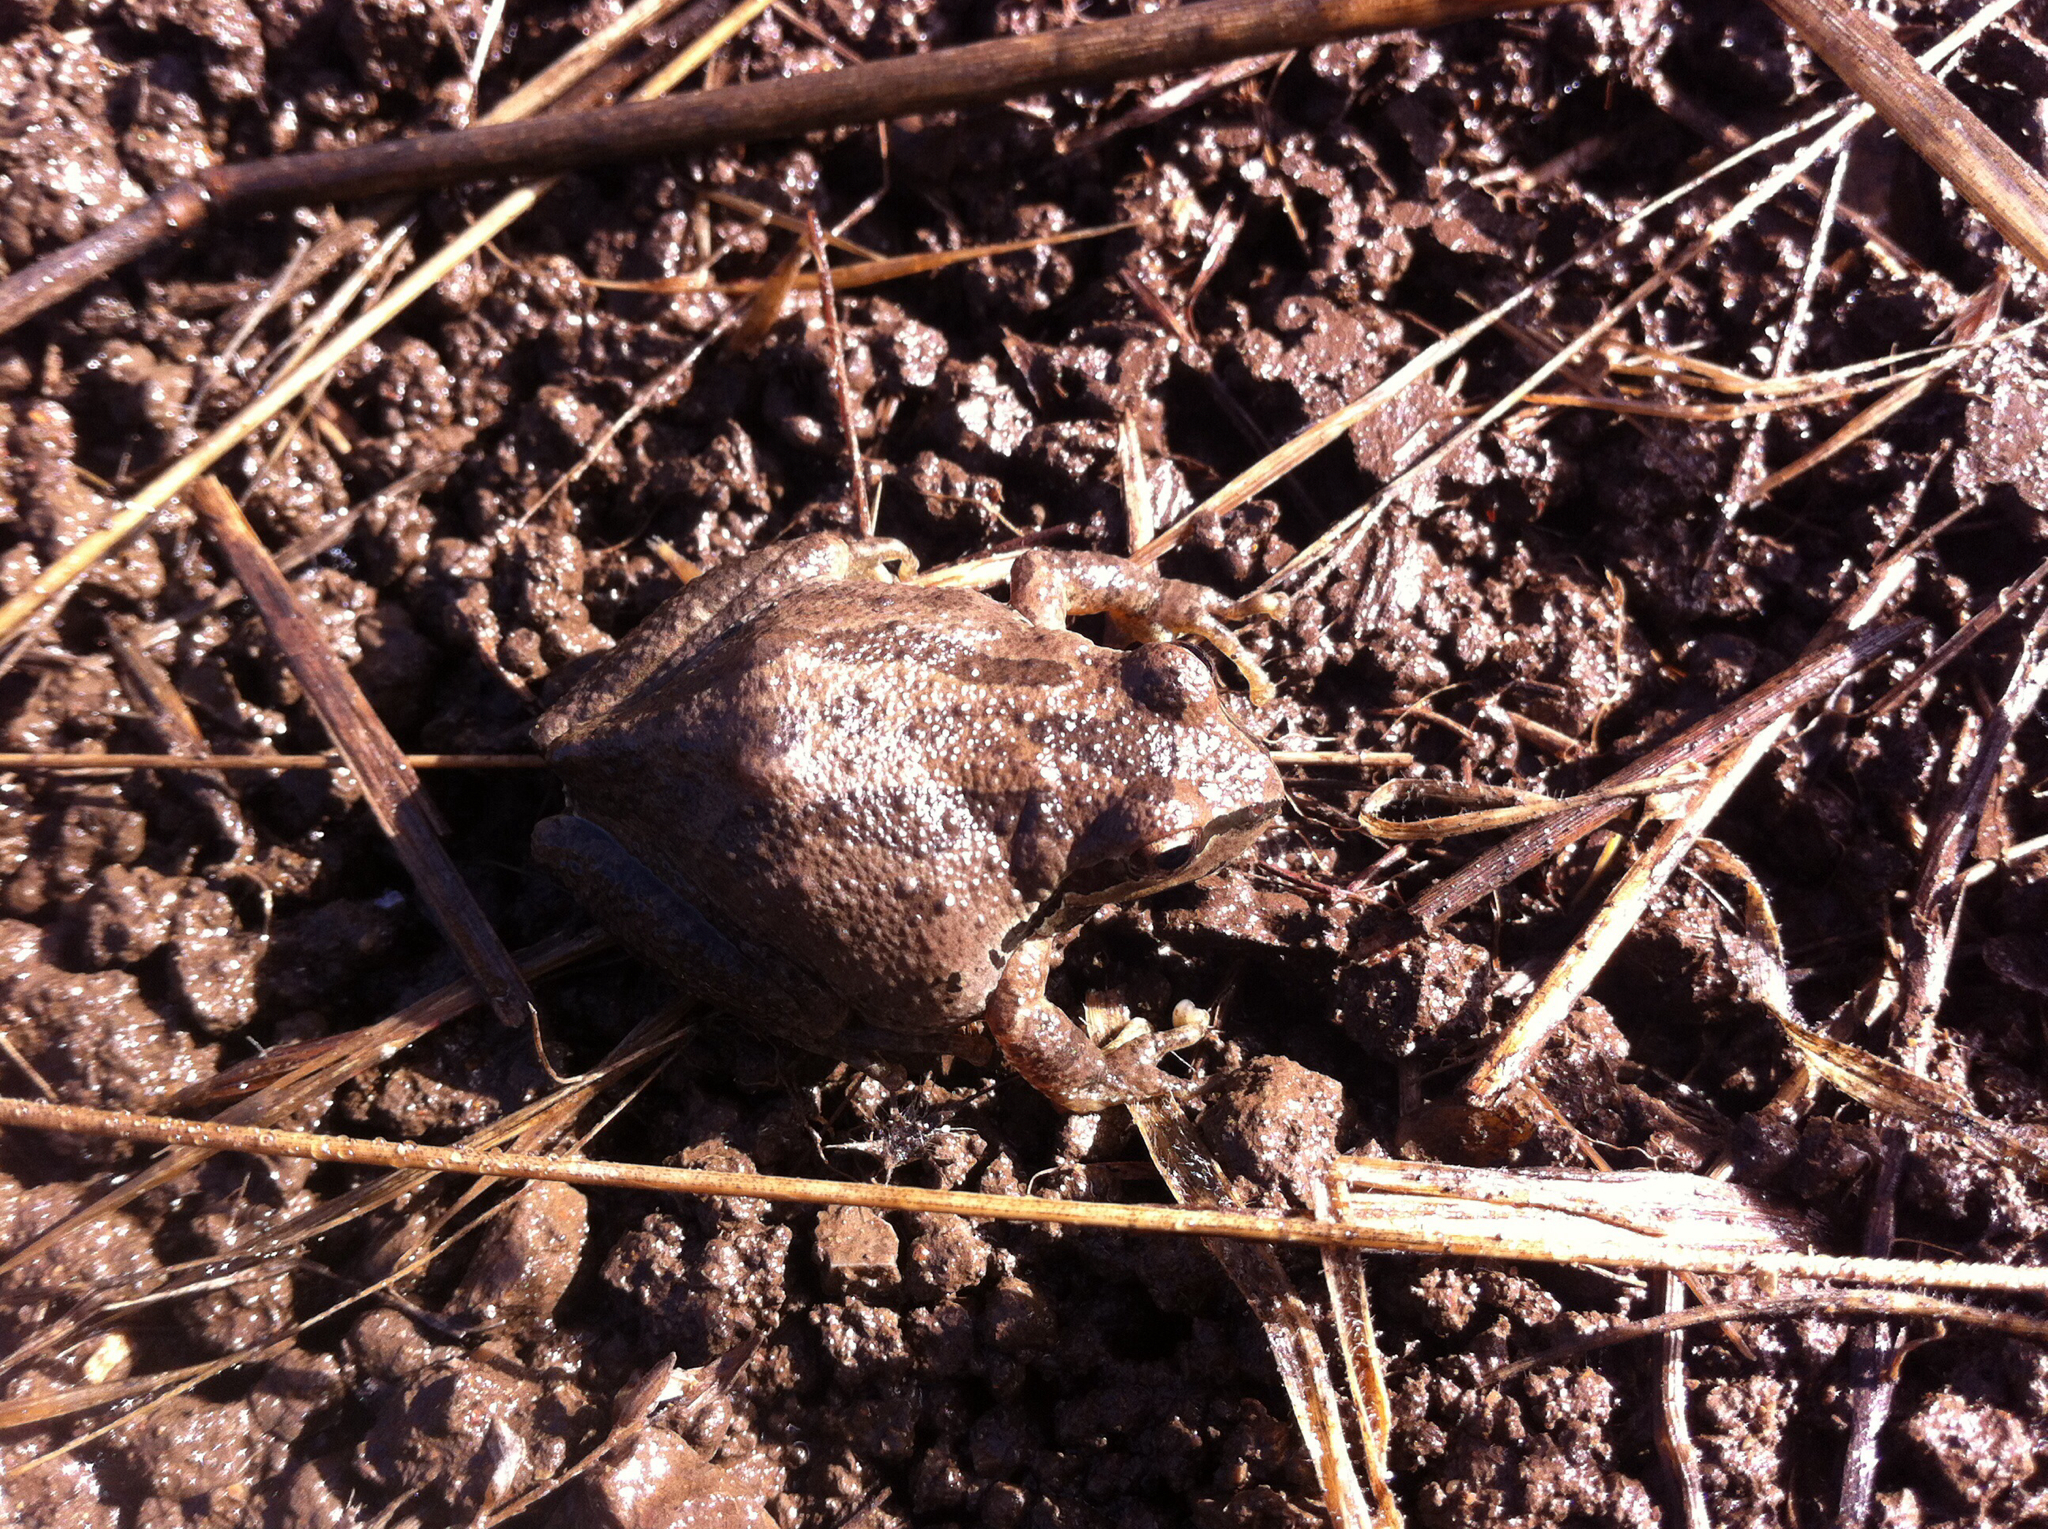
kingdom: Animalia
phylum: Chordata
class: Amphibia
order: Anura
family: Hylidae
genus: Pseudacris
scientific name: Pseudacris regilla
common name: Pacific chorus frog
